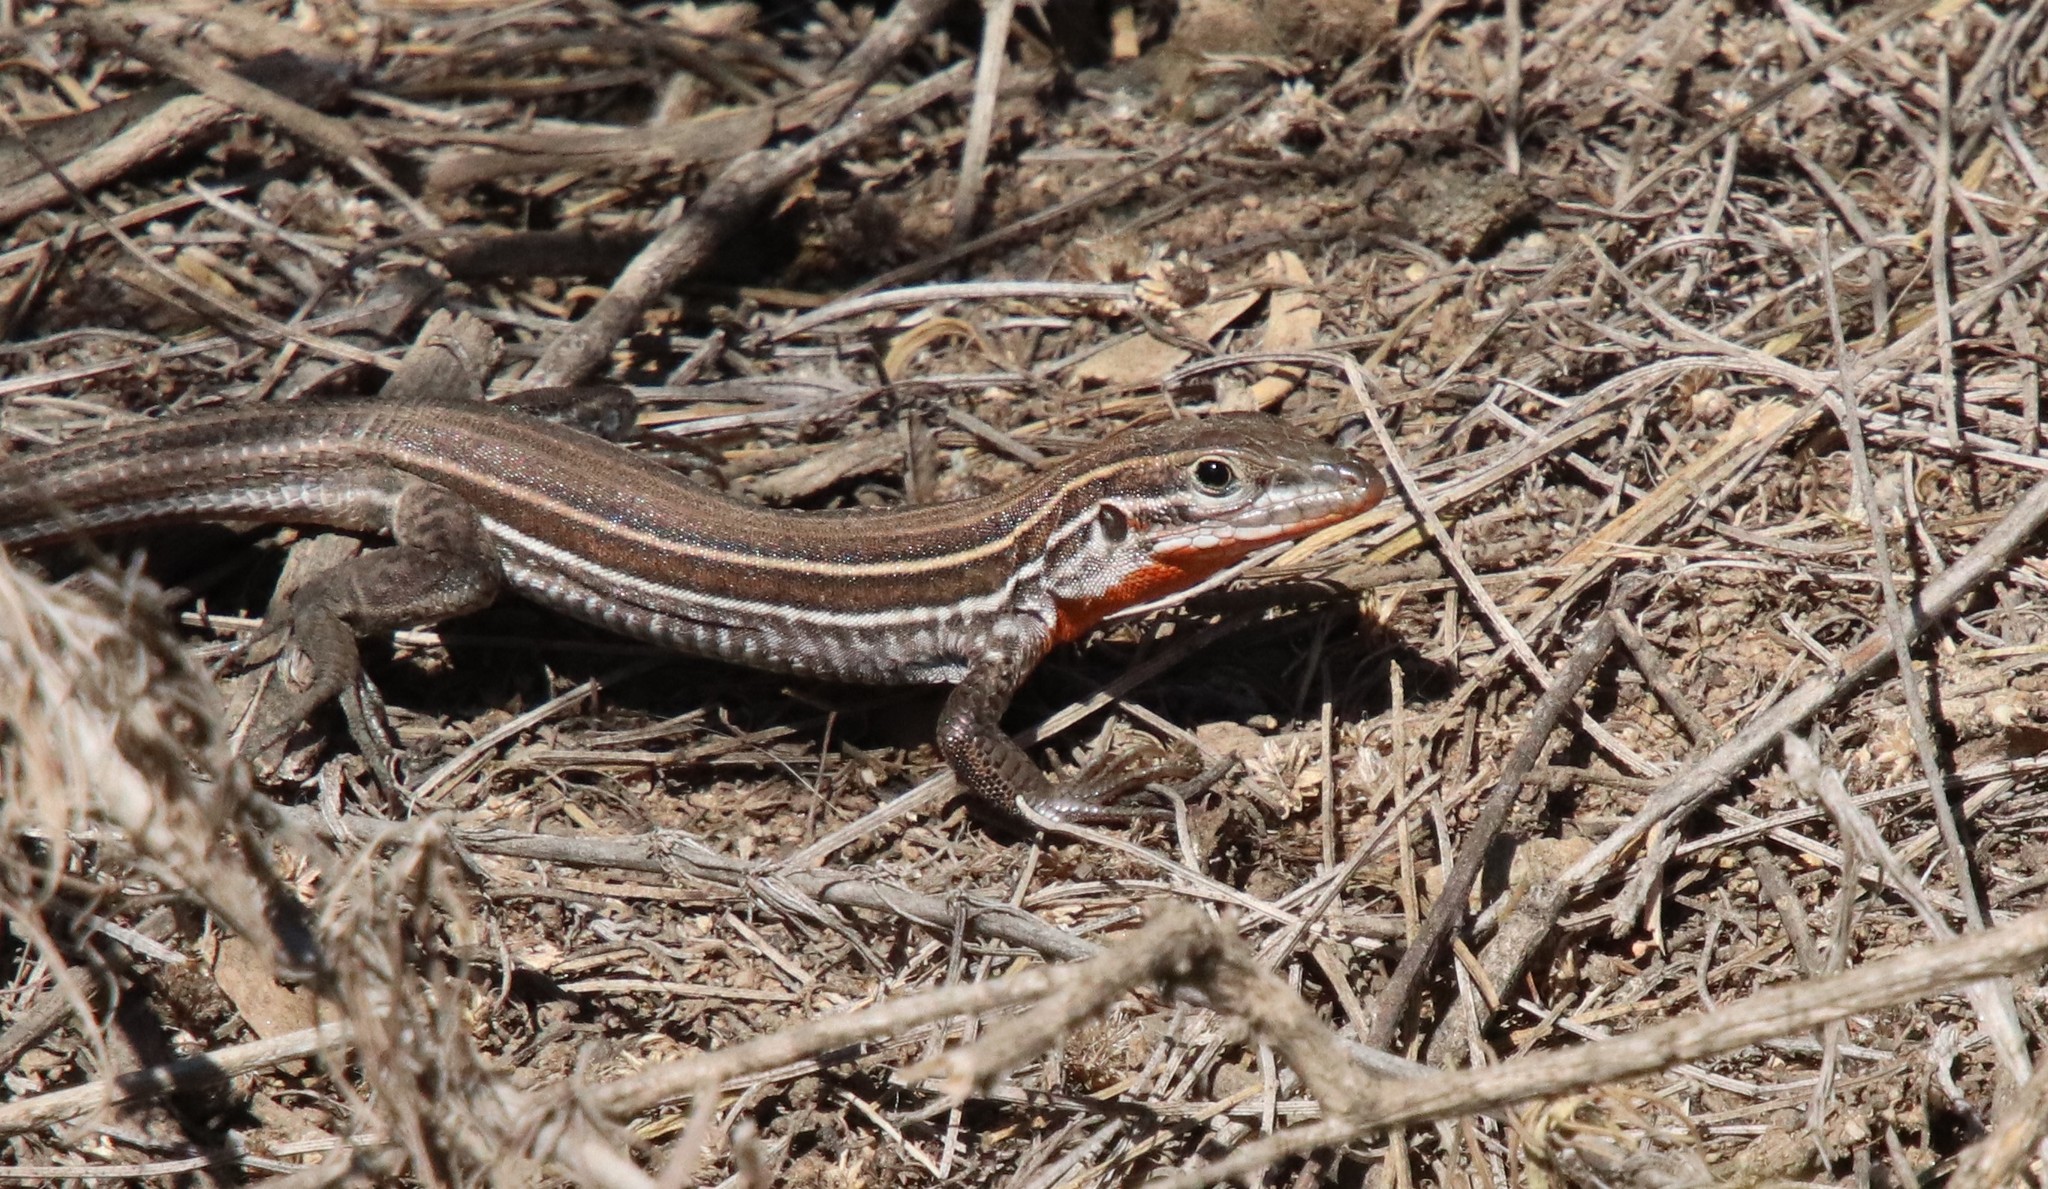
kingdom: Animalia
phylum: Chordata
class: Squamata
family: Teiidae
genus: Aspidoscelis
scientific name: Aspidoscelis hyperythrus
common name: Orange-throated race-runner
